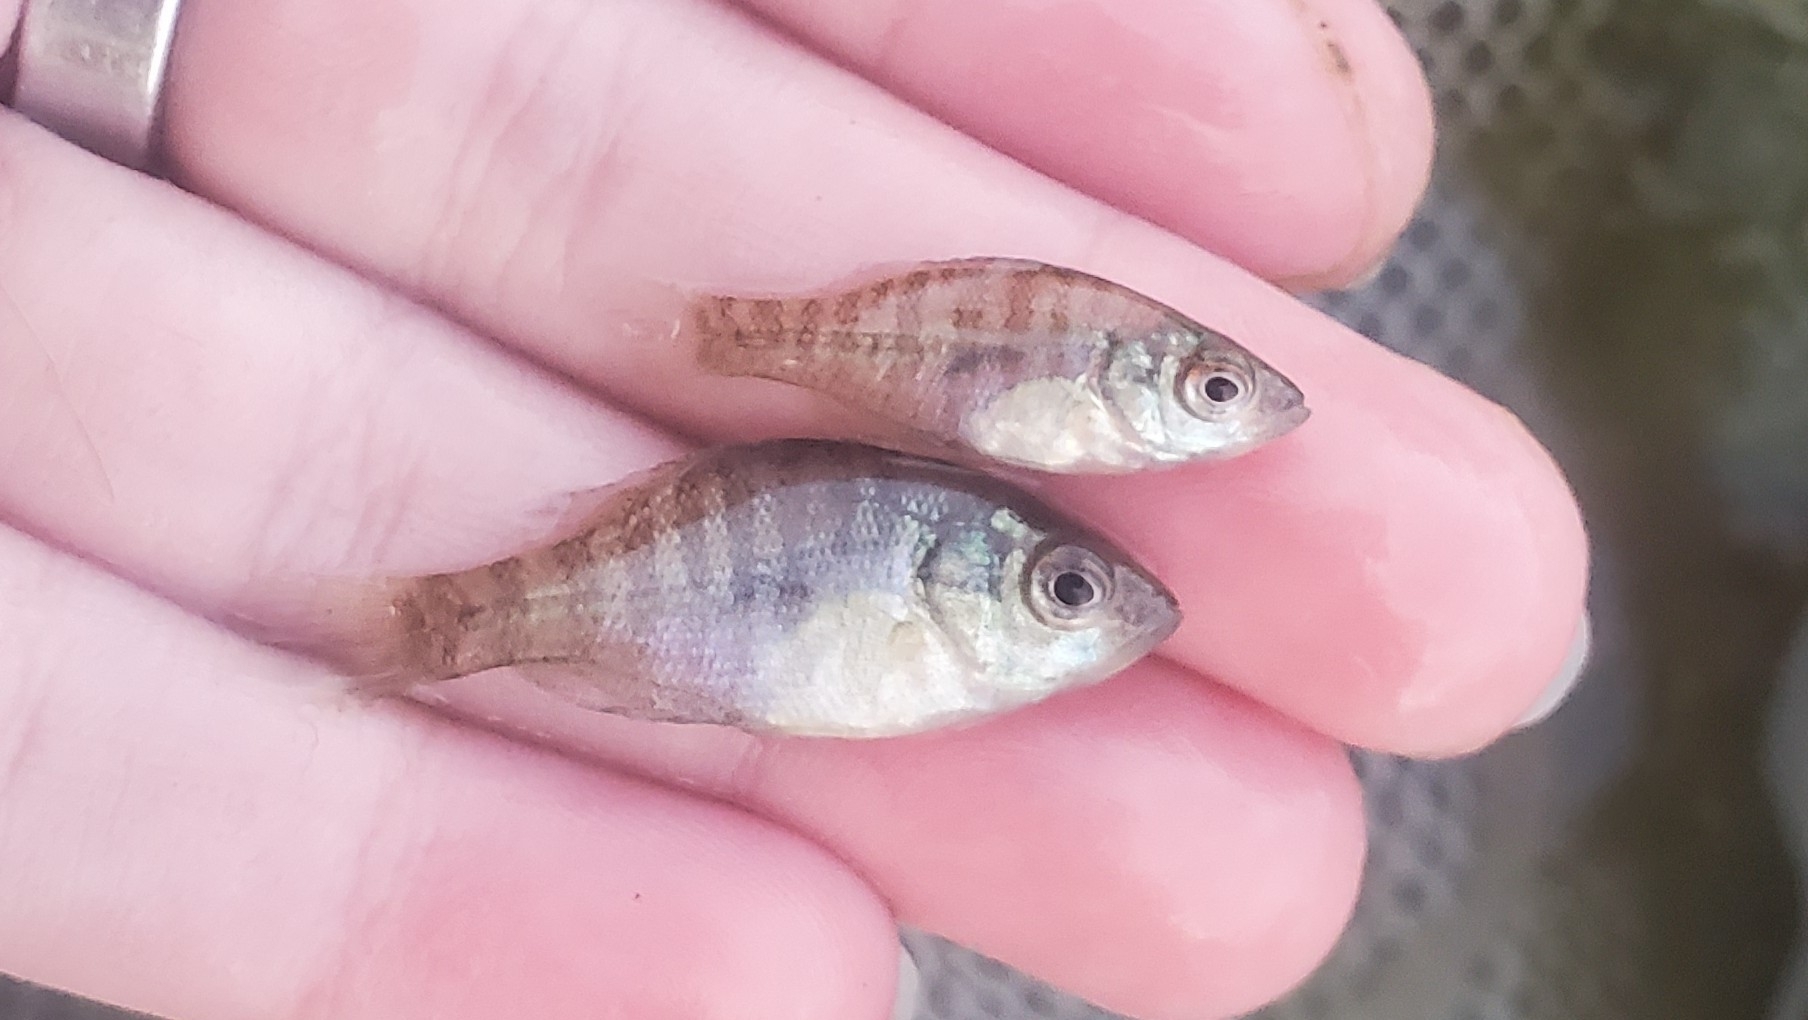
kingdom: Animalia
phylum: Chordata
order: Perciformes
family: Centrarchidae
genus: Lepomis
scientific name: Lepomis macrochirus
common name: Bluegill
